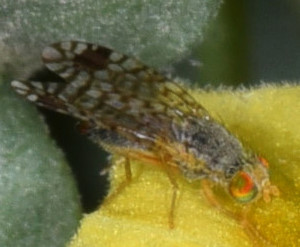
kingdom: Animalia
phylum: Arthropoda
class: Insecta
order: Diptera
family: Tephritidae
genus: Euarestoides
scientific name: Euarestoides acutangulus
